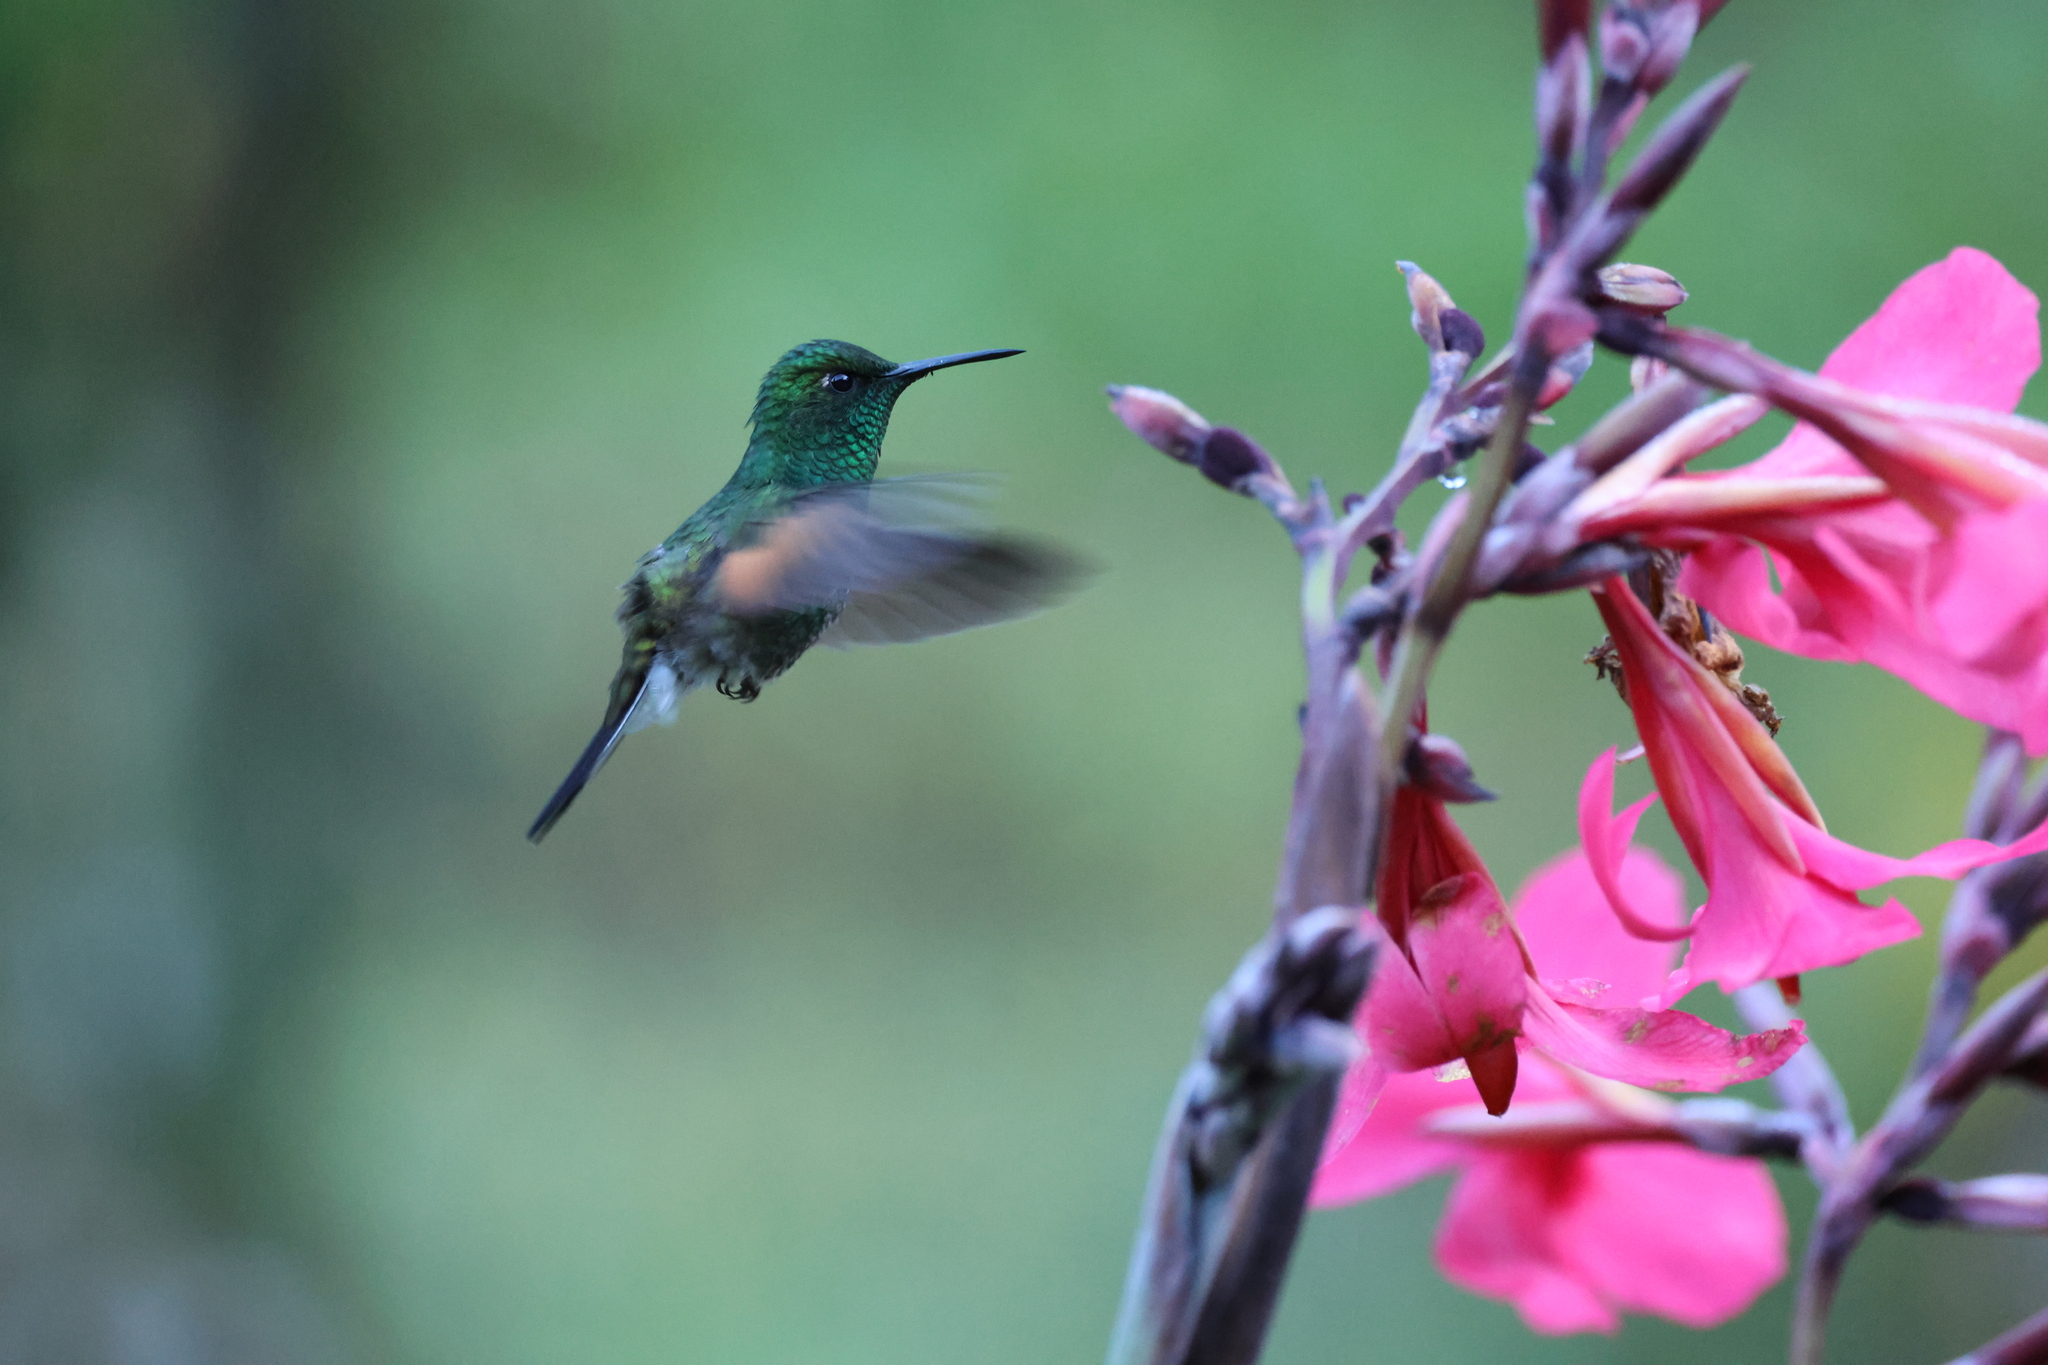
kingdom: Animalia
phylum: Chordata
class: Aves
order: Apodiformes
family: Trochilidae
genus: Eupherusa
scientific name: Eupherusa eximia
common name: Stripe-tailed hummingbird
